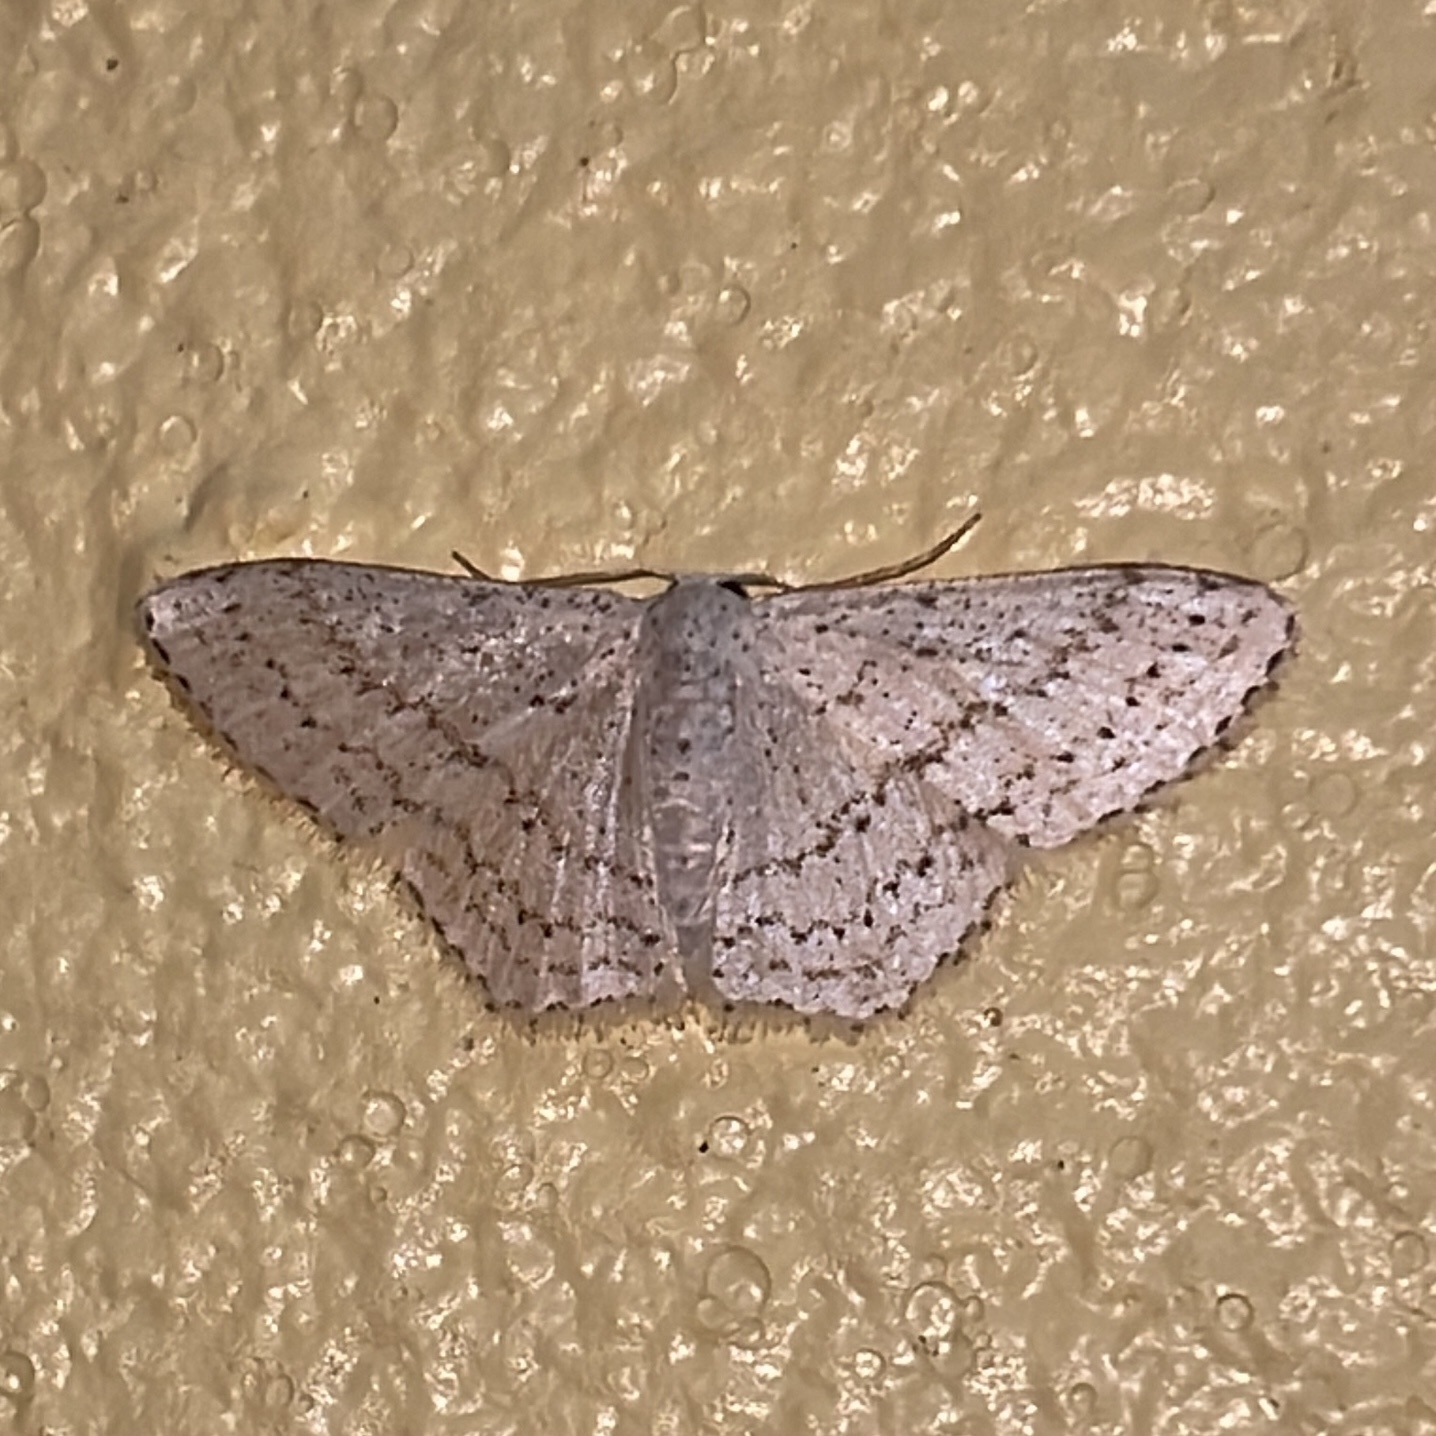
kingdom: Animalia
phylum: Arthropoda
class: Insecta
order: Lepidoptera
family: Geometridae
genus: Idaea
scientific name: Idaea tacturata
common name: Dot-lined wave
